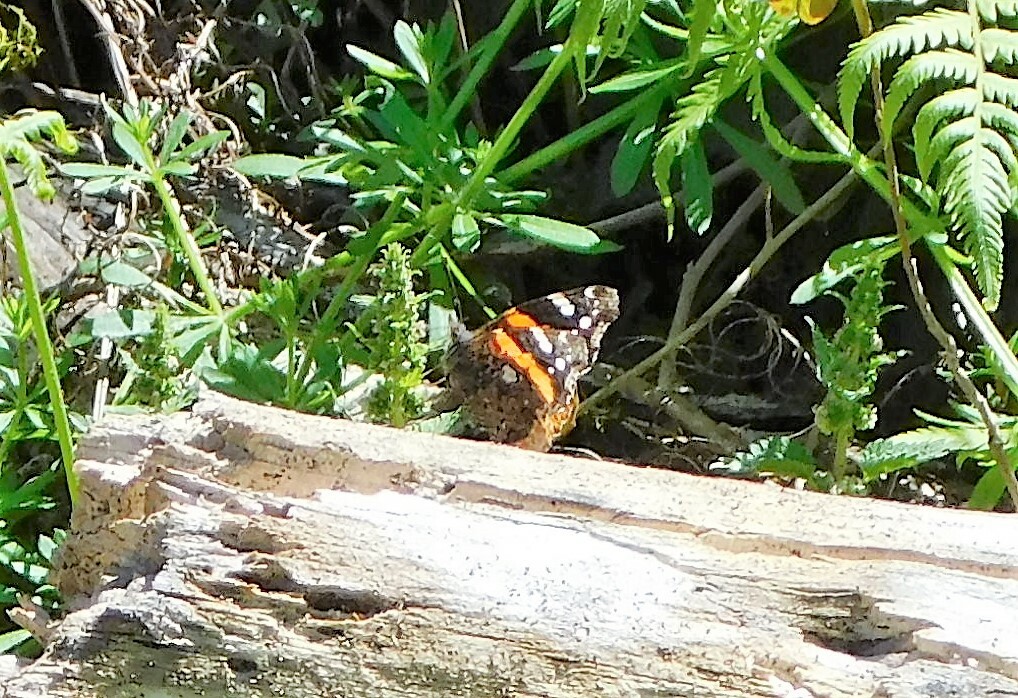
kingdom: Animalia
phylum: Arthropoda
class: Insecta
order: Lepidoptera
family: Nymphalidae
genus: Vanessa
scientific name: Vanessa atalanta
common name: Red admiral
